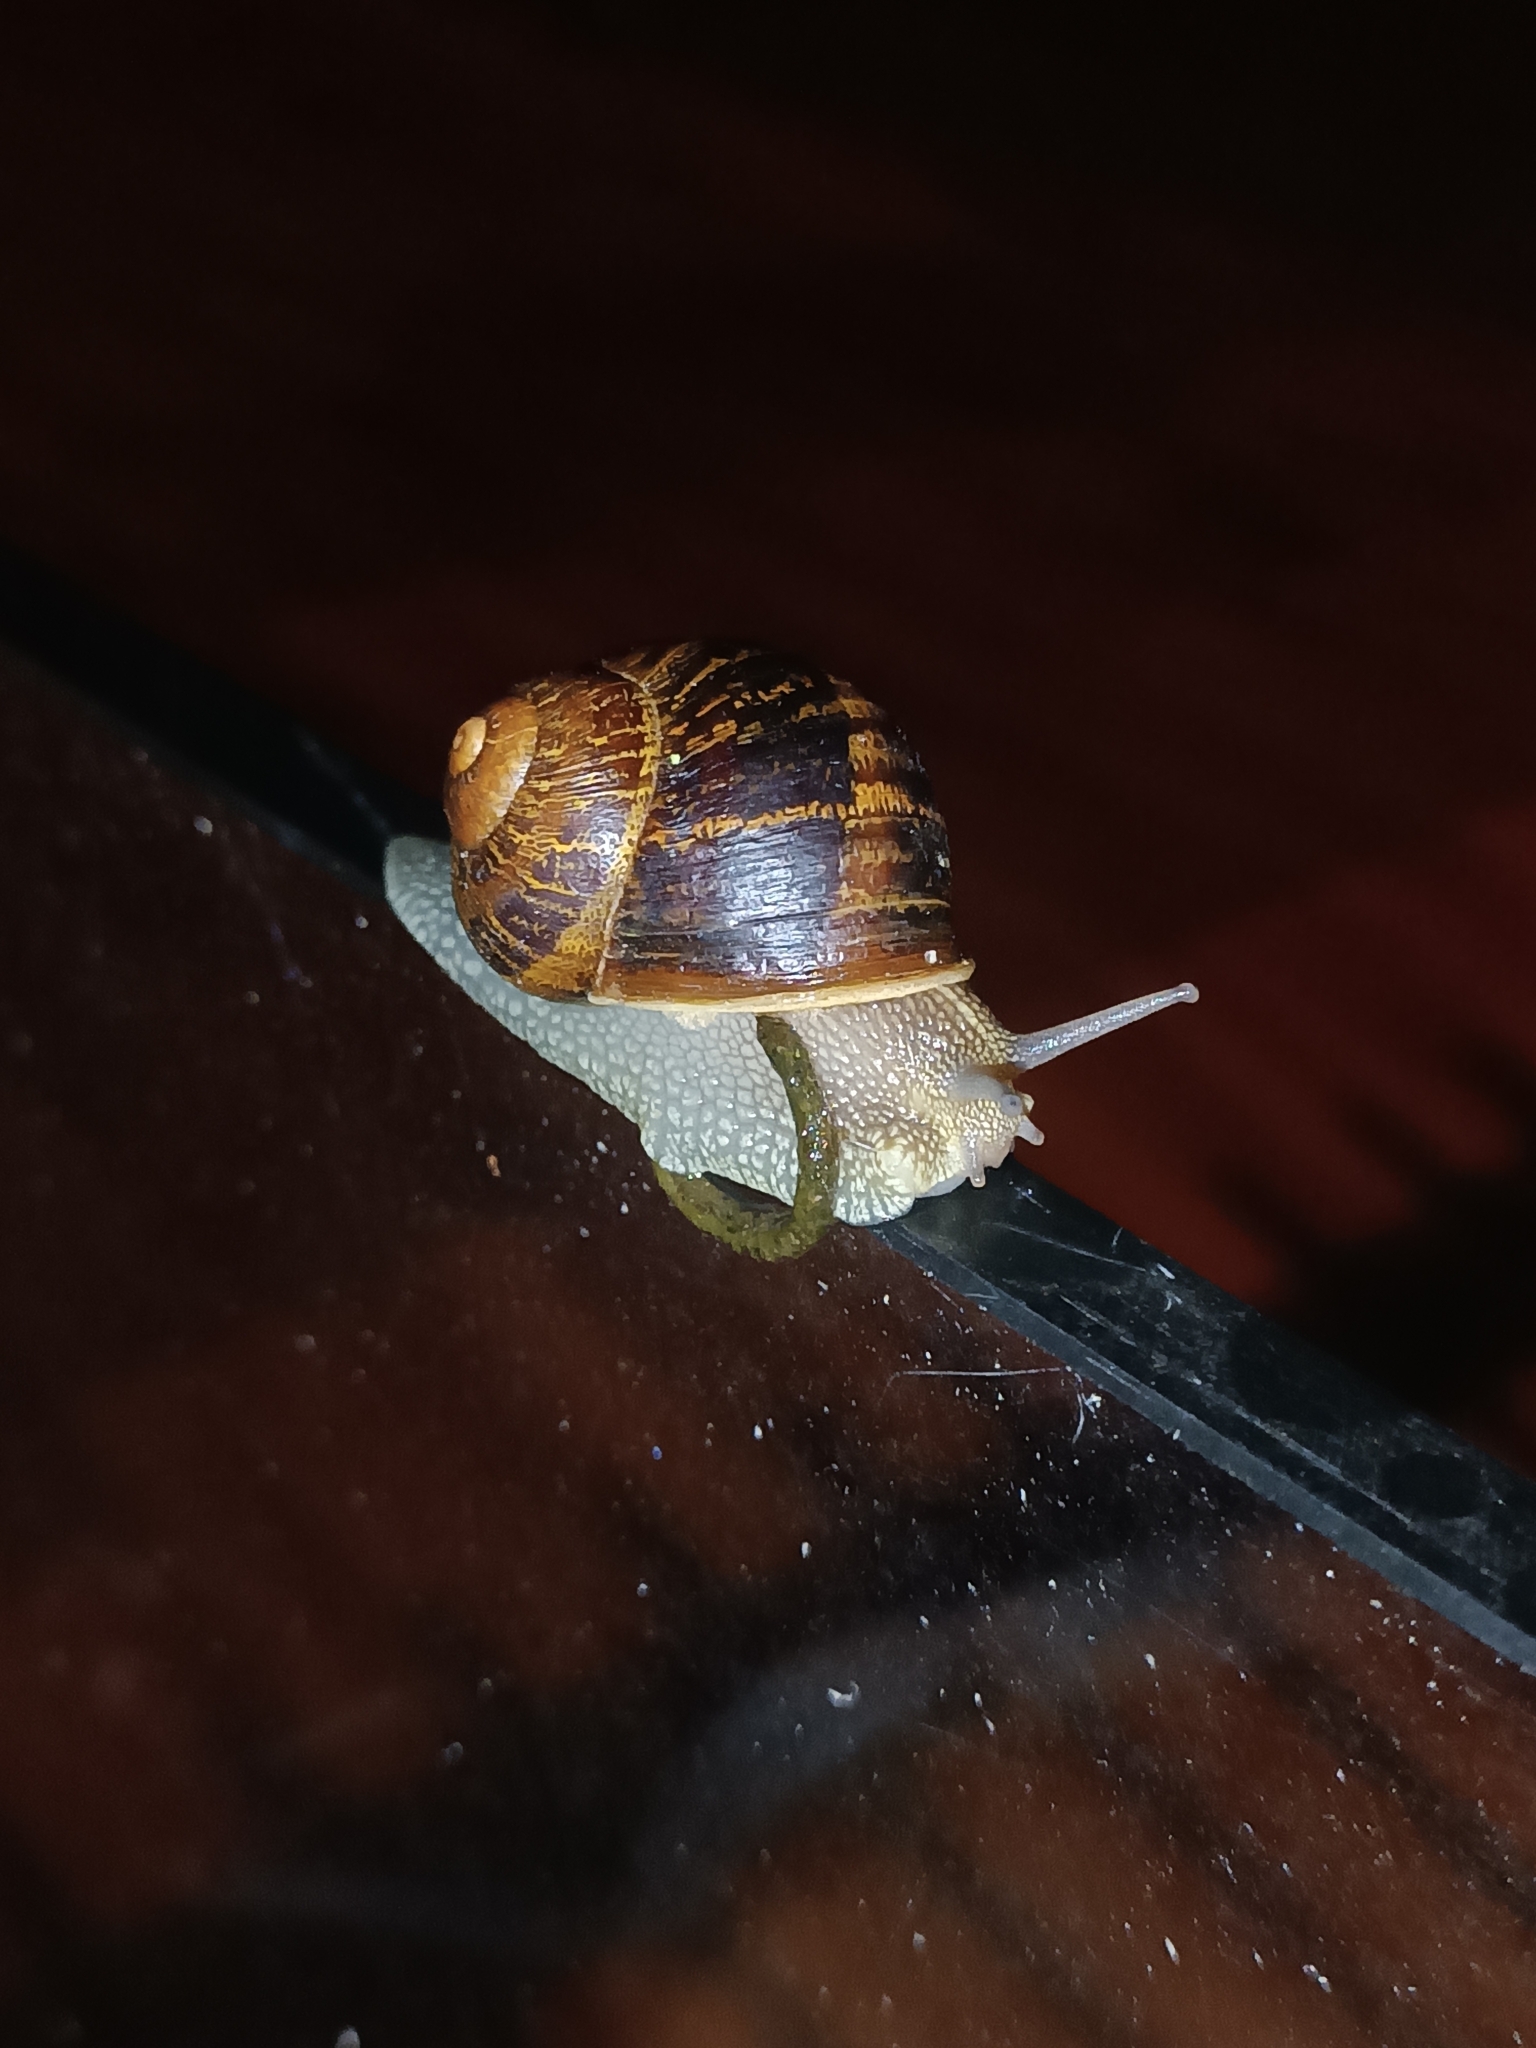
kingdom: Animalia
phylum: Mollusca
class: Gastropoda
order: Stylommatophora
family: Helicidae
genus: Cornu
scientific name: Cornu aspersum
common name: Brown garden snail
